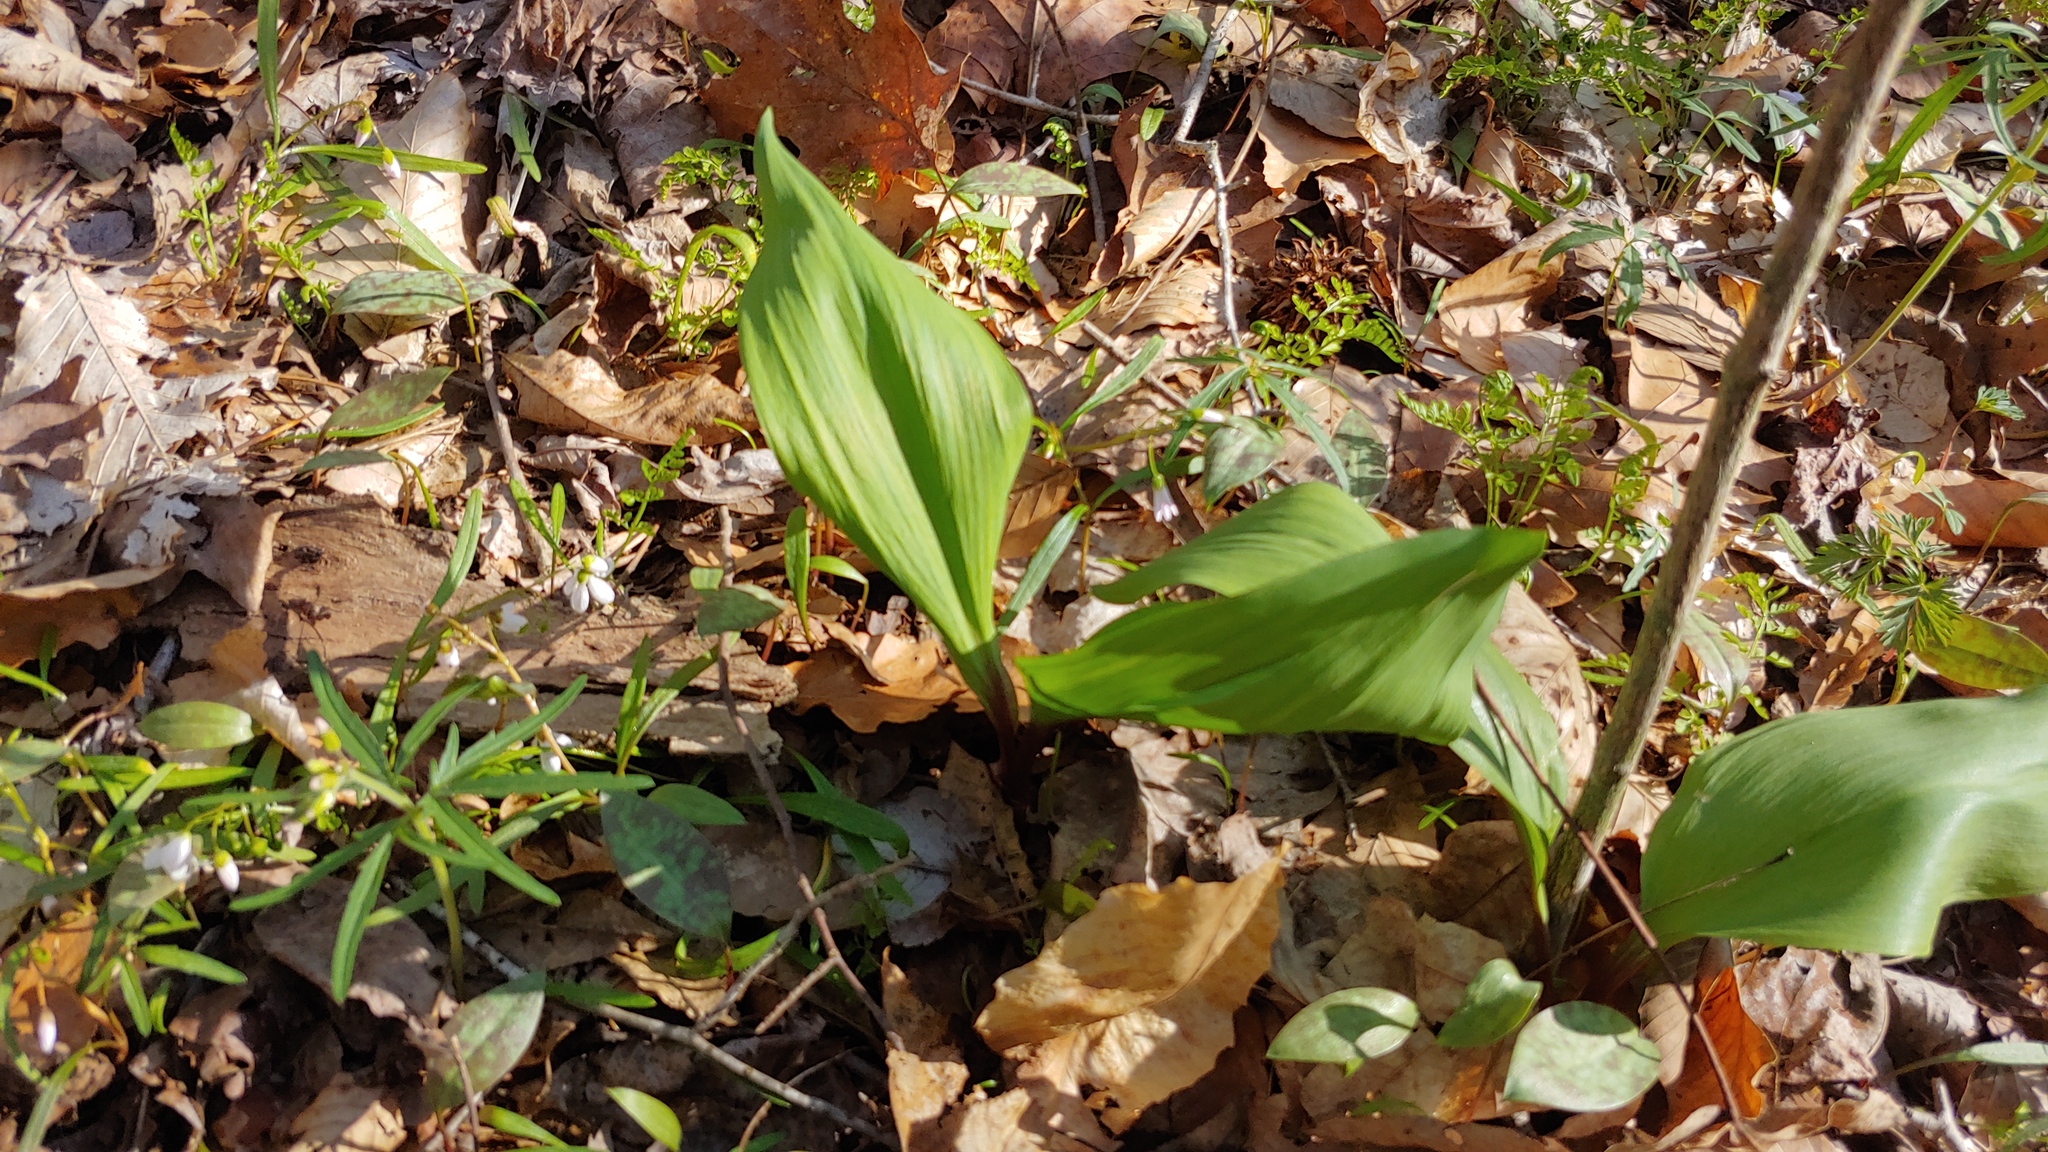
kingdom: Plantae
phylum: Tracheophyta
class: Liliopsida
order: Asparagales
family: Amaryllidaceae
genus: Allium
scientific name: Allium tricoccum
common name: Ramp
